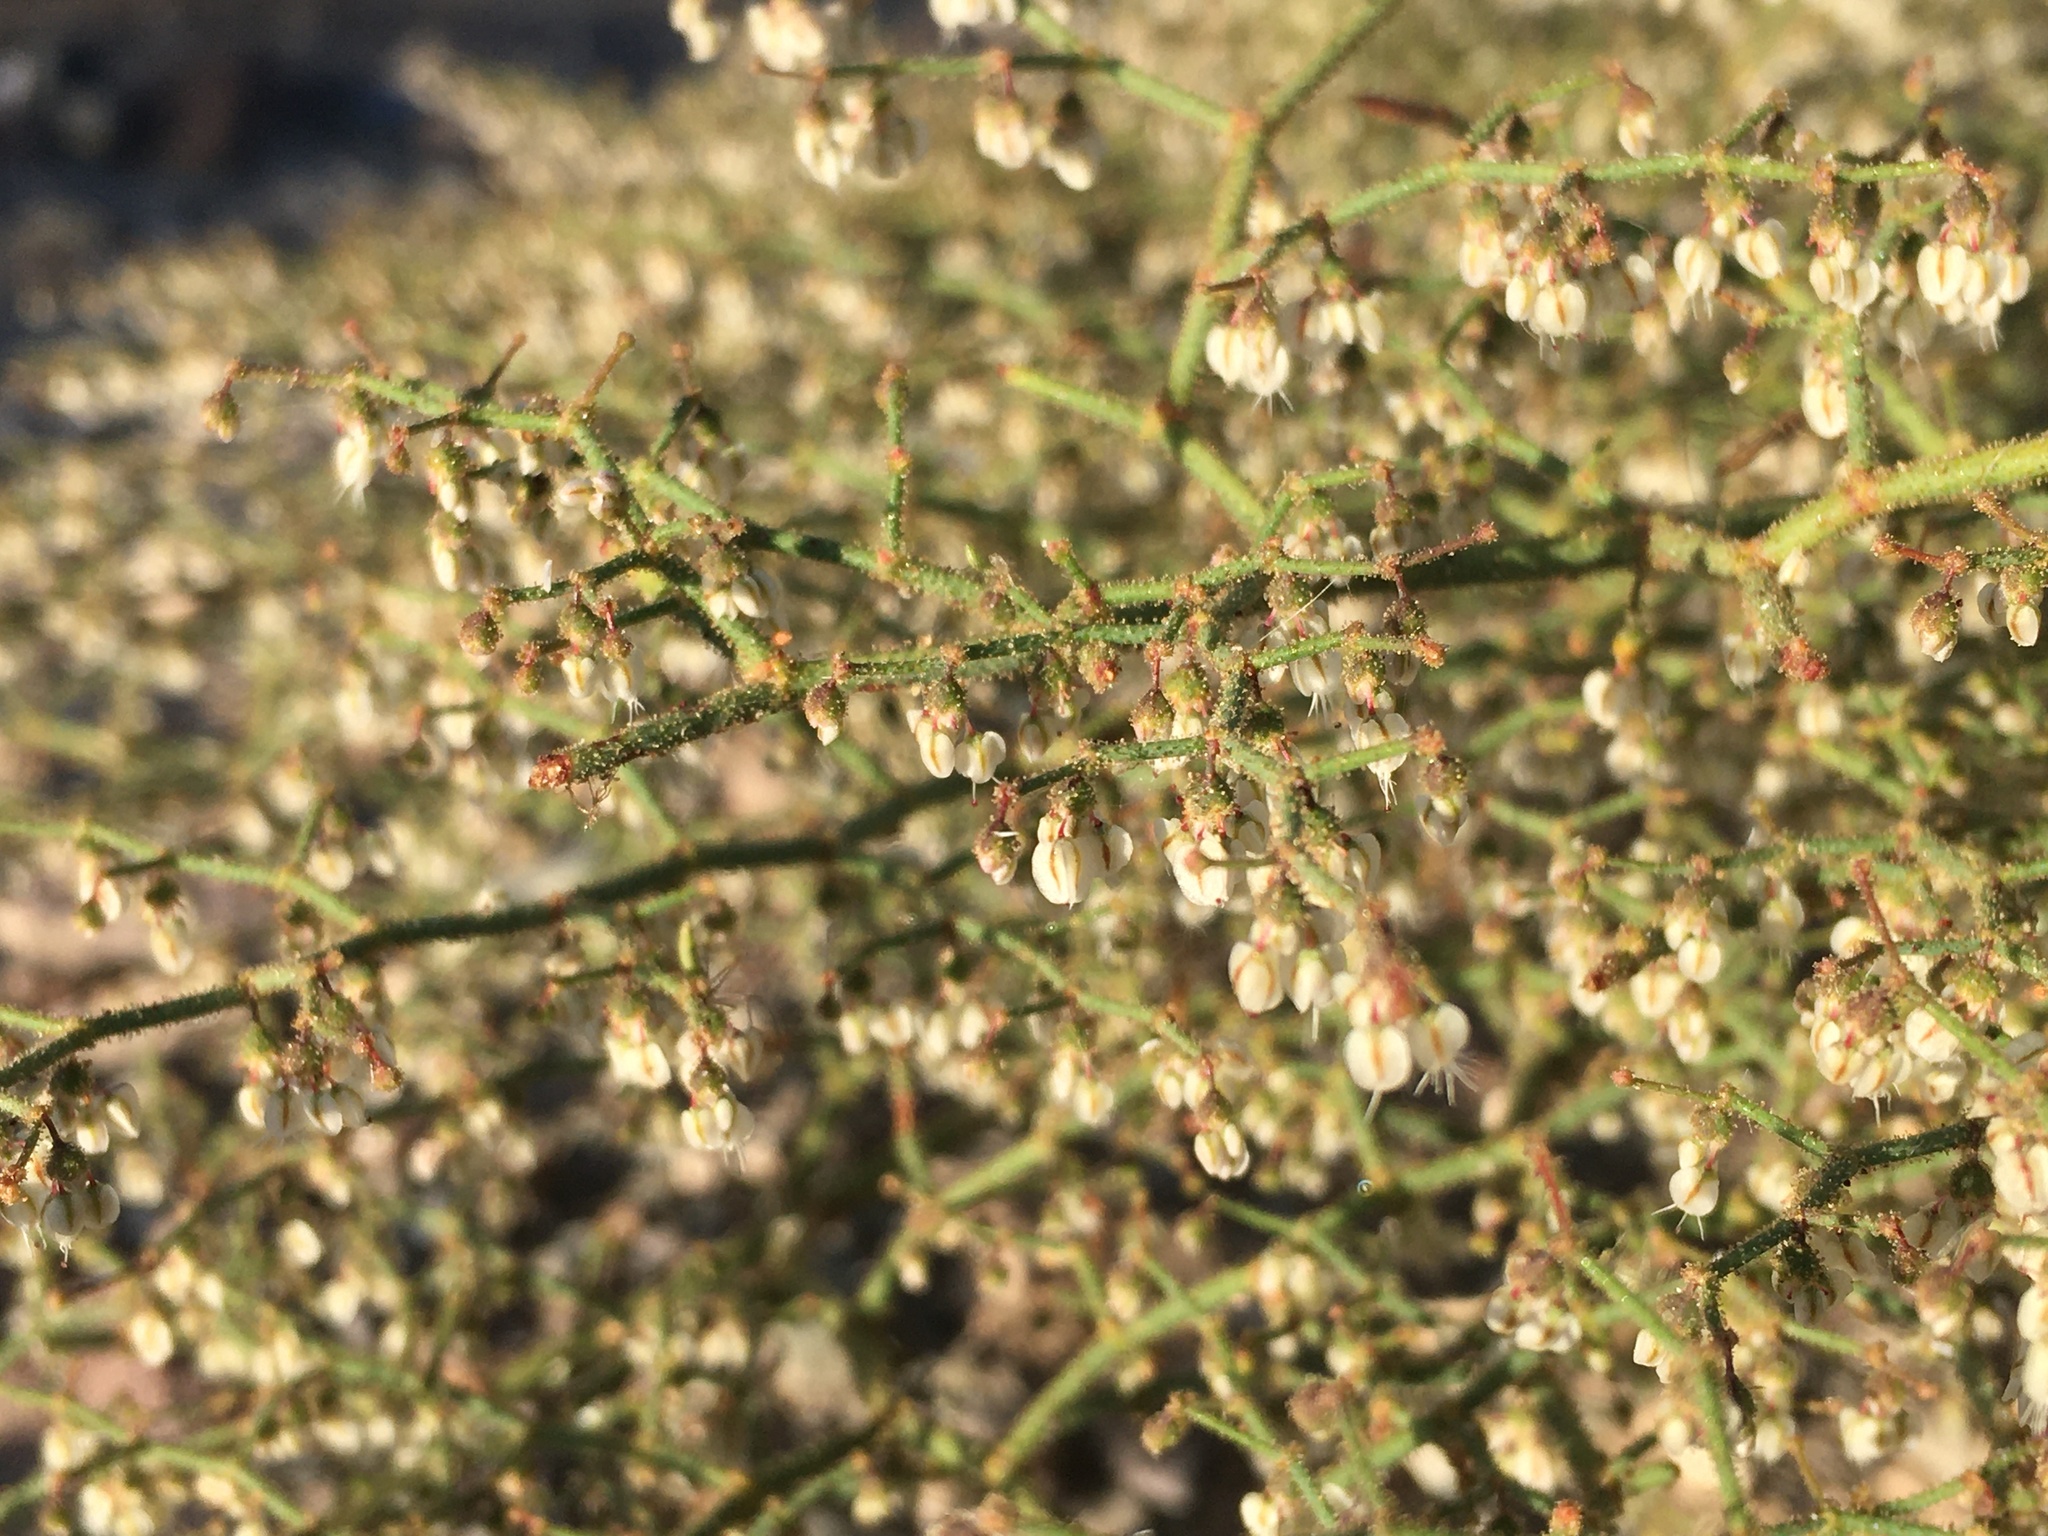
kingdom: Plantae
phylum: Tracheophyta
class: Magnoliopsida
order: Caryophyllales
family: Polygonaceae
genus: Eriogonum
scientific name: Eriogonum brachypodum
